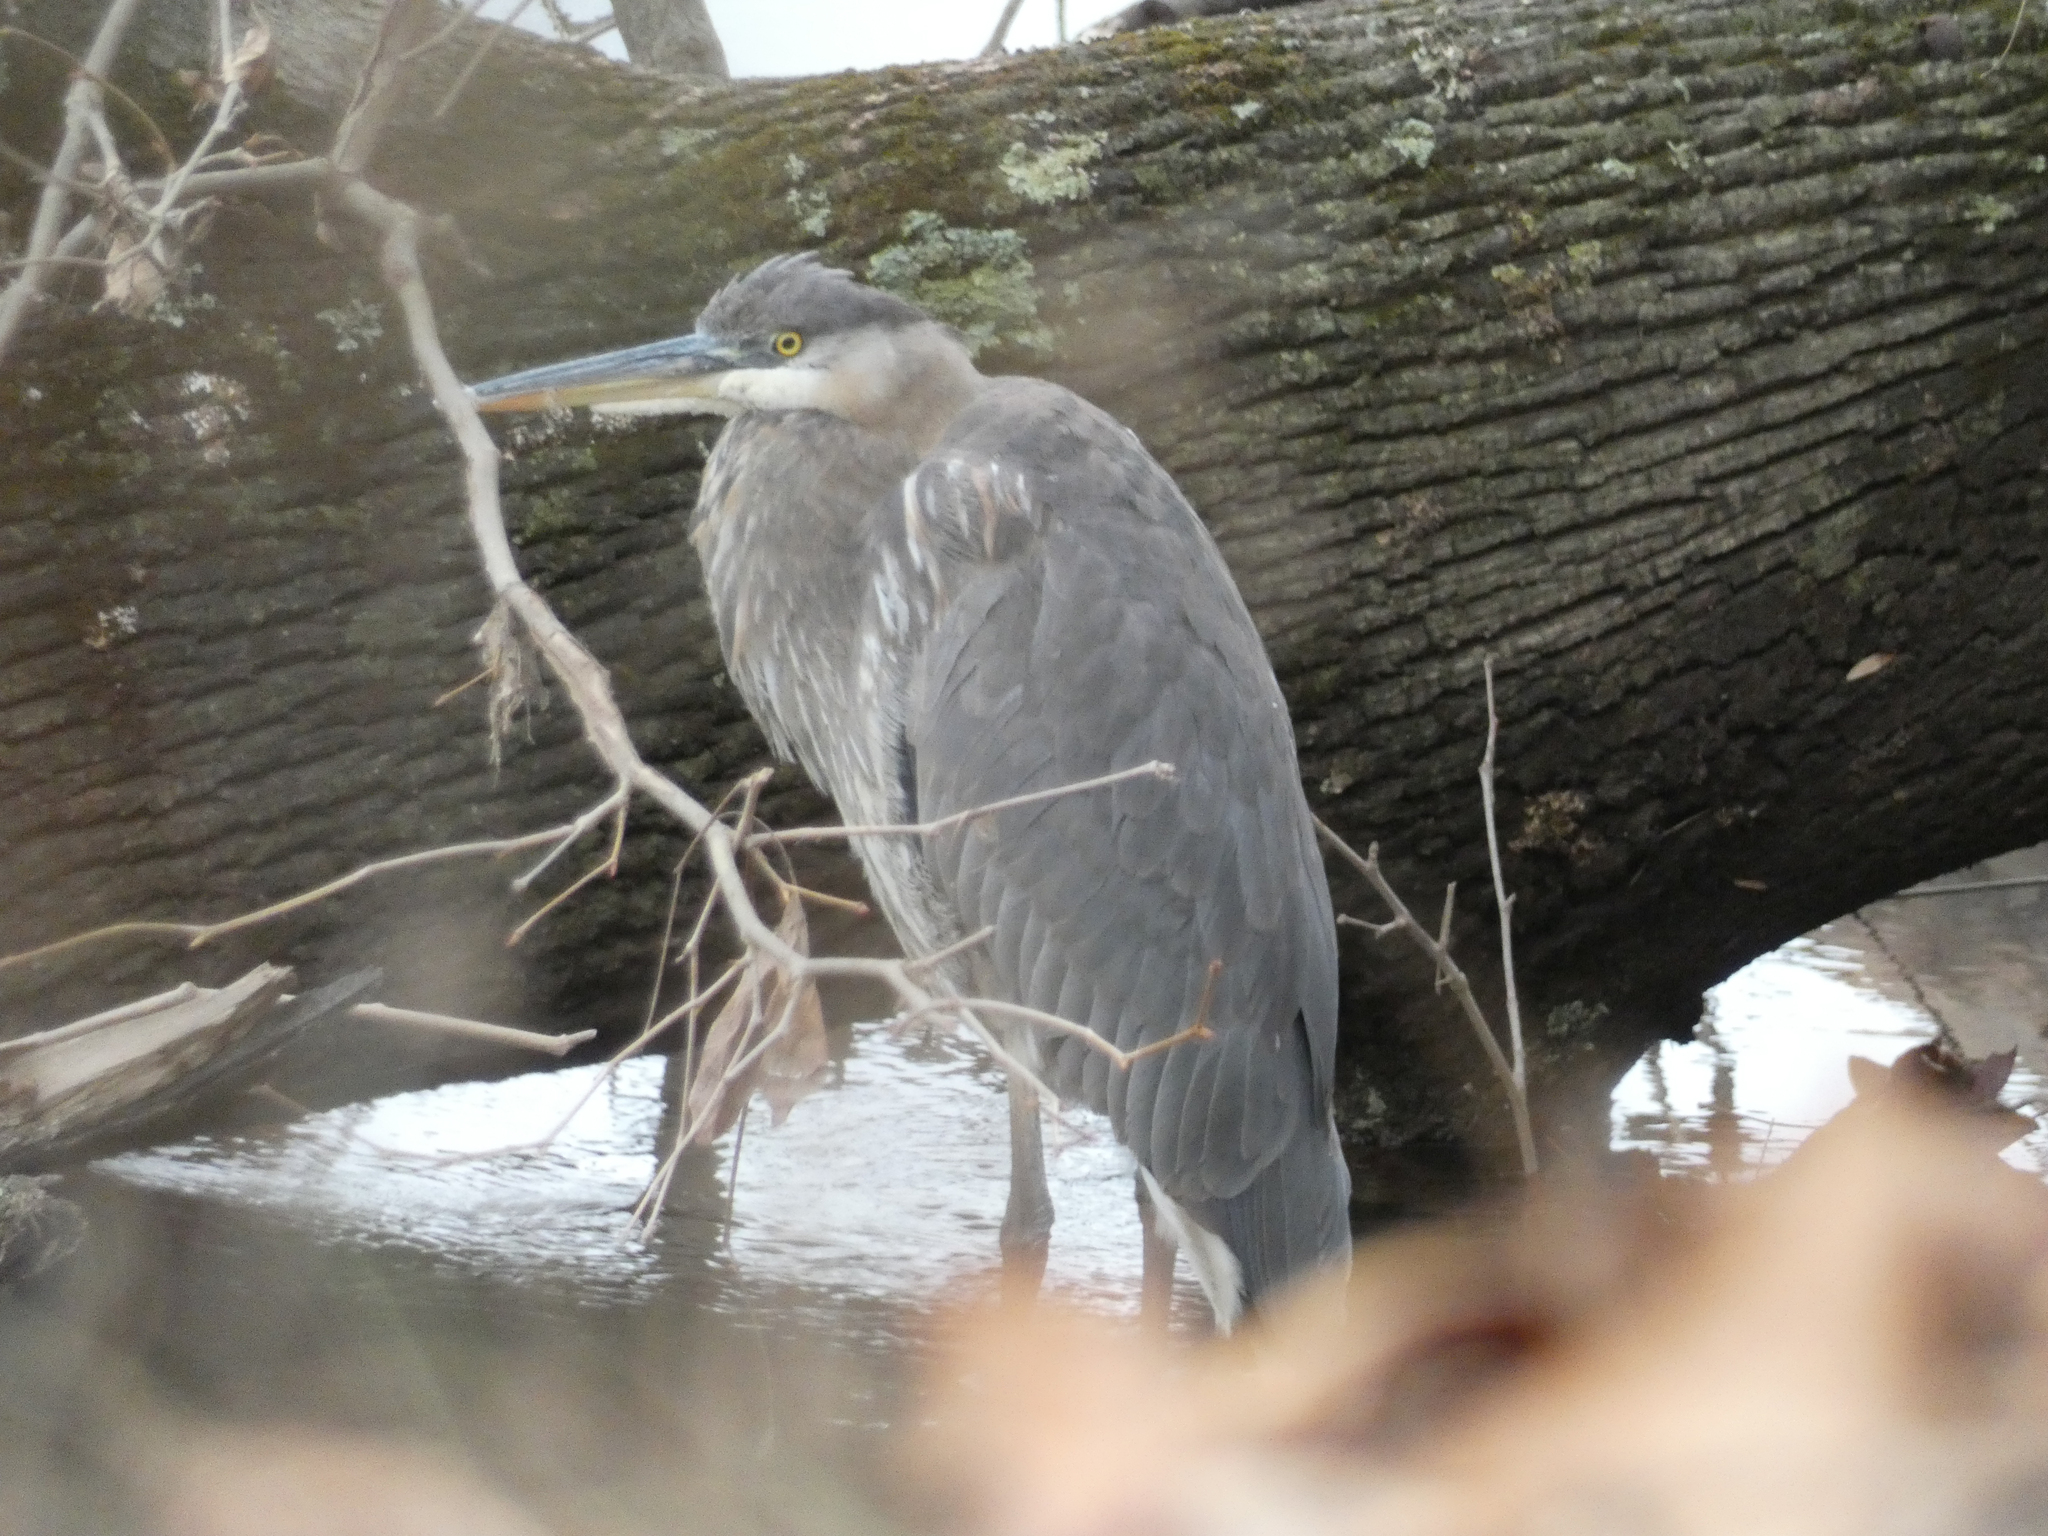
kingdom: Animalia
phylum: Chordata
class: Aves
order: Pelecaniformes
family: Ardeidae
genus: Ardea
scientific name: Ardea herodias
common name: Great blue heron
